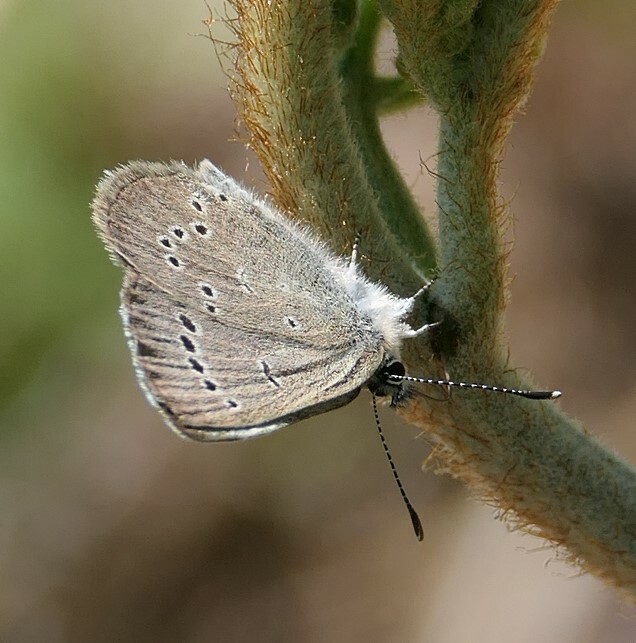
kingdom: Animalia
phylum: Arthropoda
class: Insecta
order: Lepidoptera
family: Lycaenidae
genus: Glaucopsyche
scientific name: Glaucopsyche lygdamus
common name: Silvery blue
